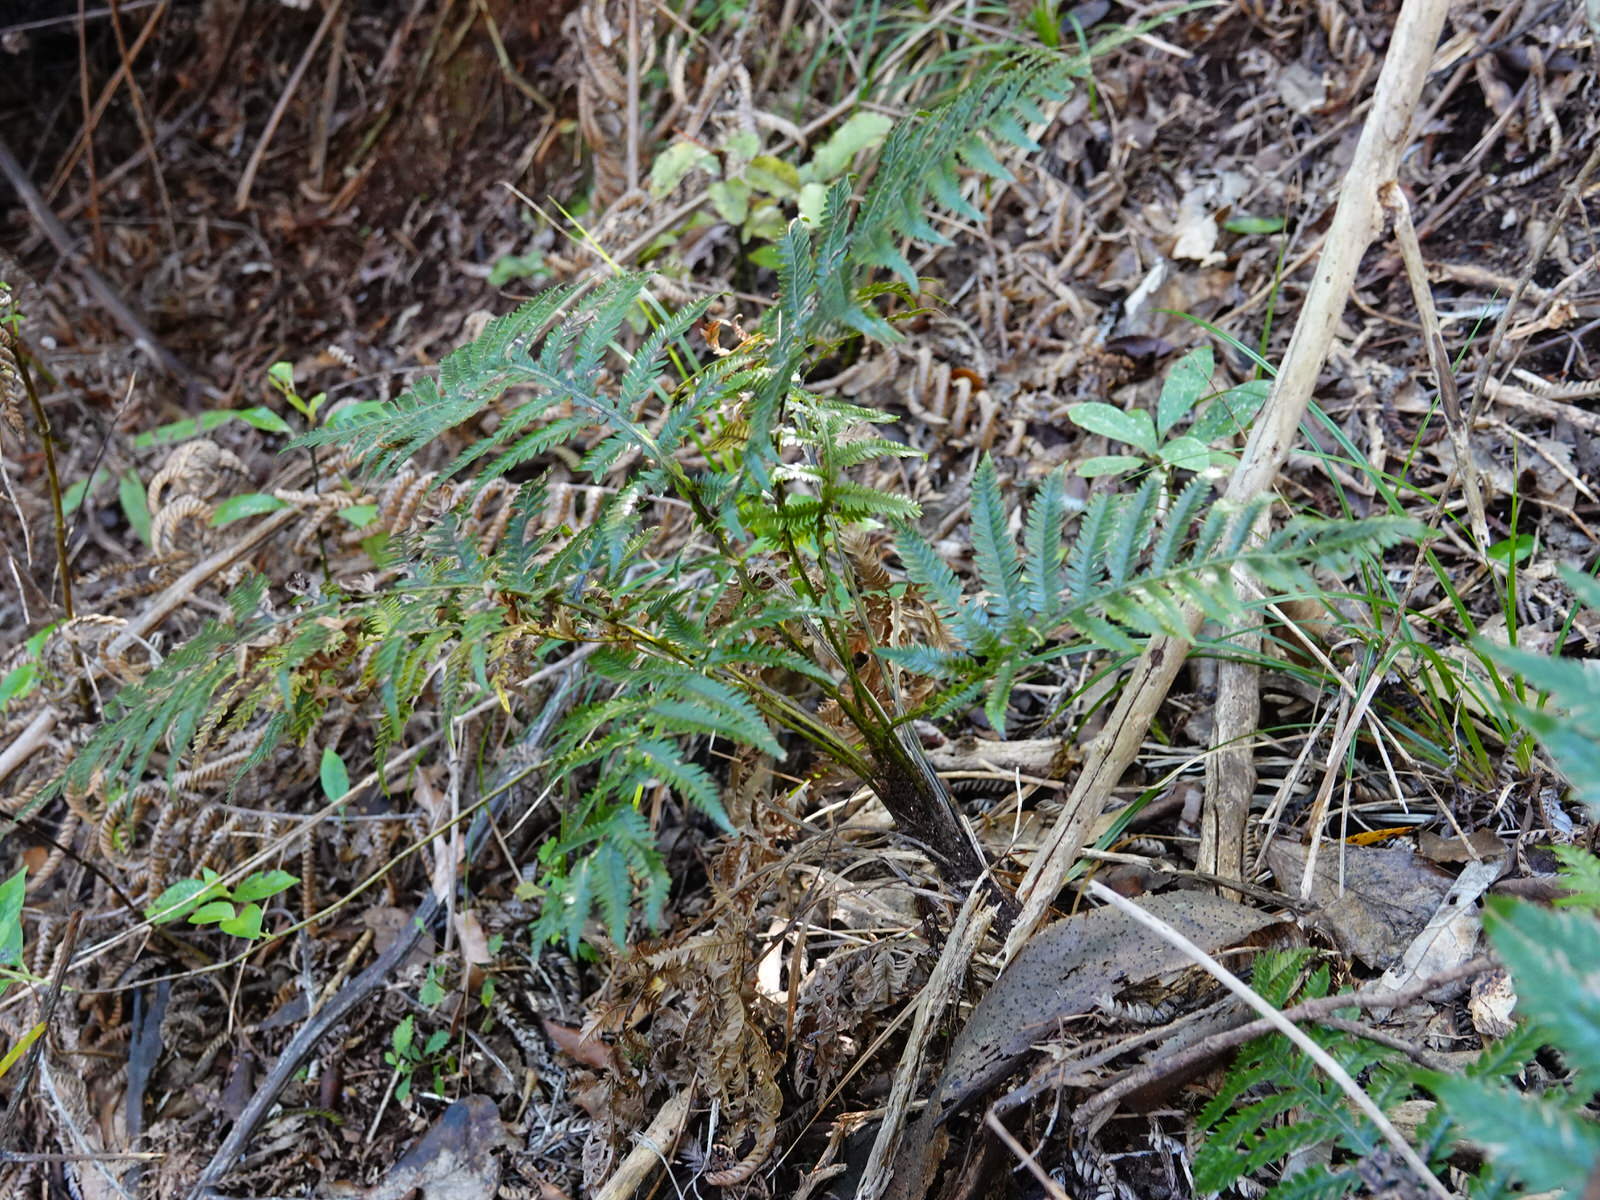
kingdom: Plantae
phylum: Tracheophyta
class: Polypodiopsida
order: Polypodiales
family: Blechnaceae
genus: Diploblechnum
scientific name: Diploblechnum fraseri
